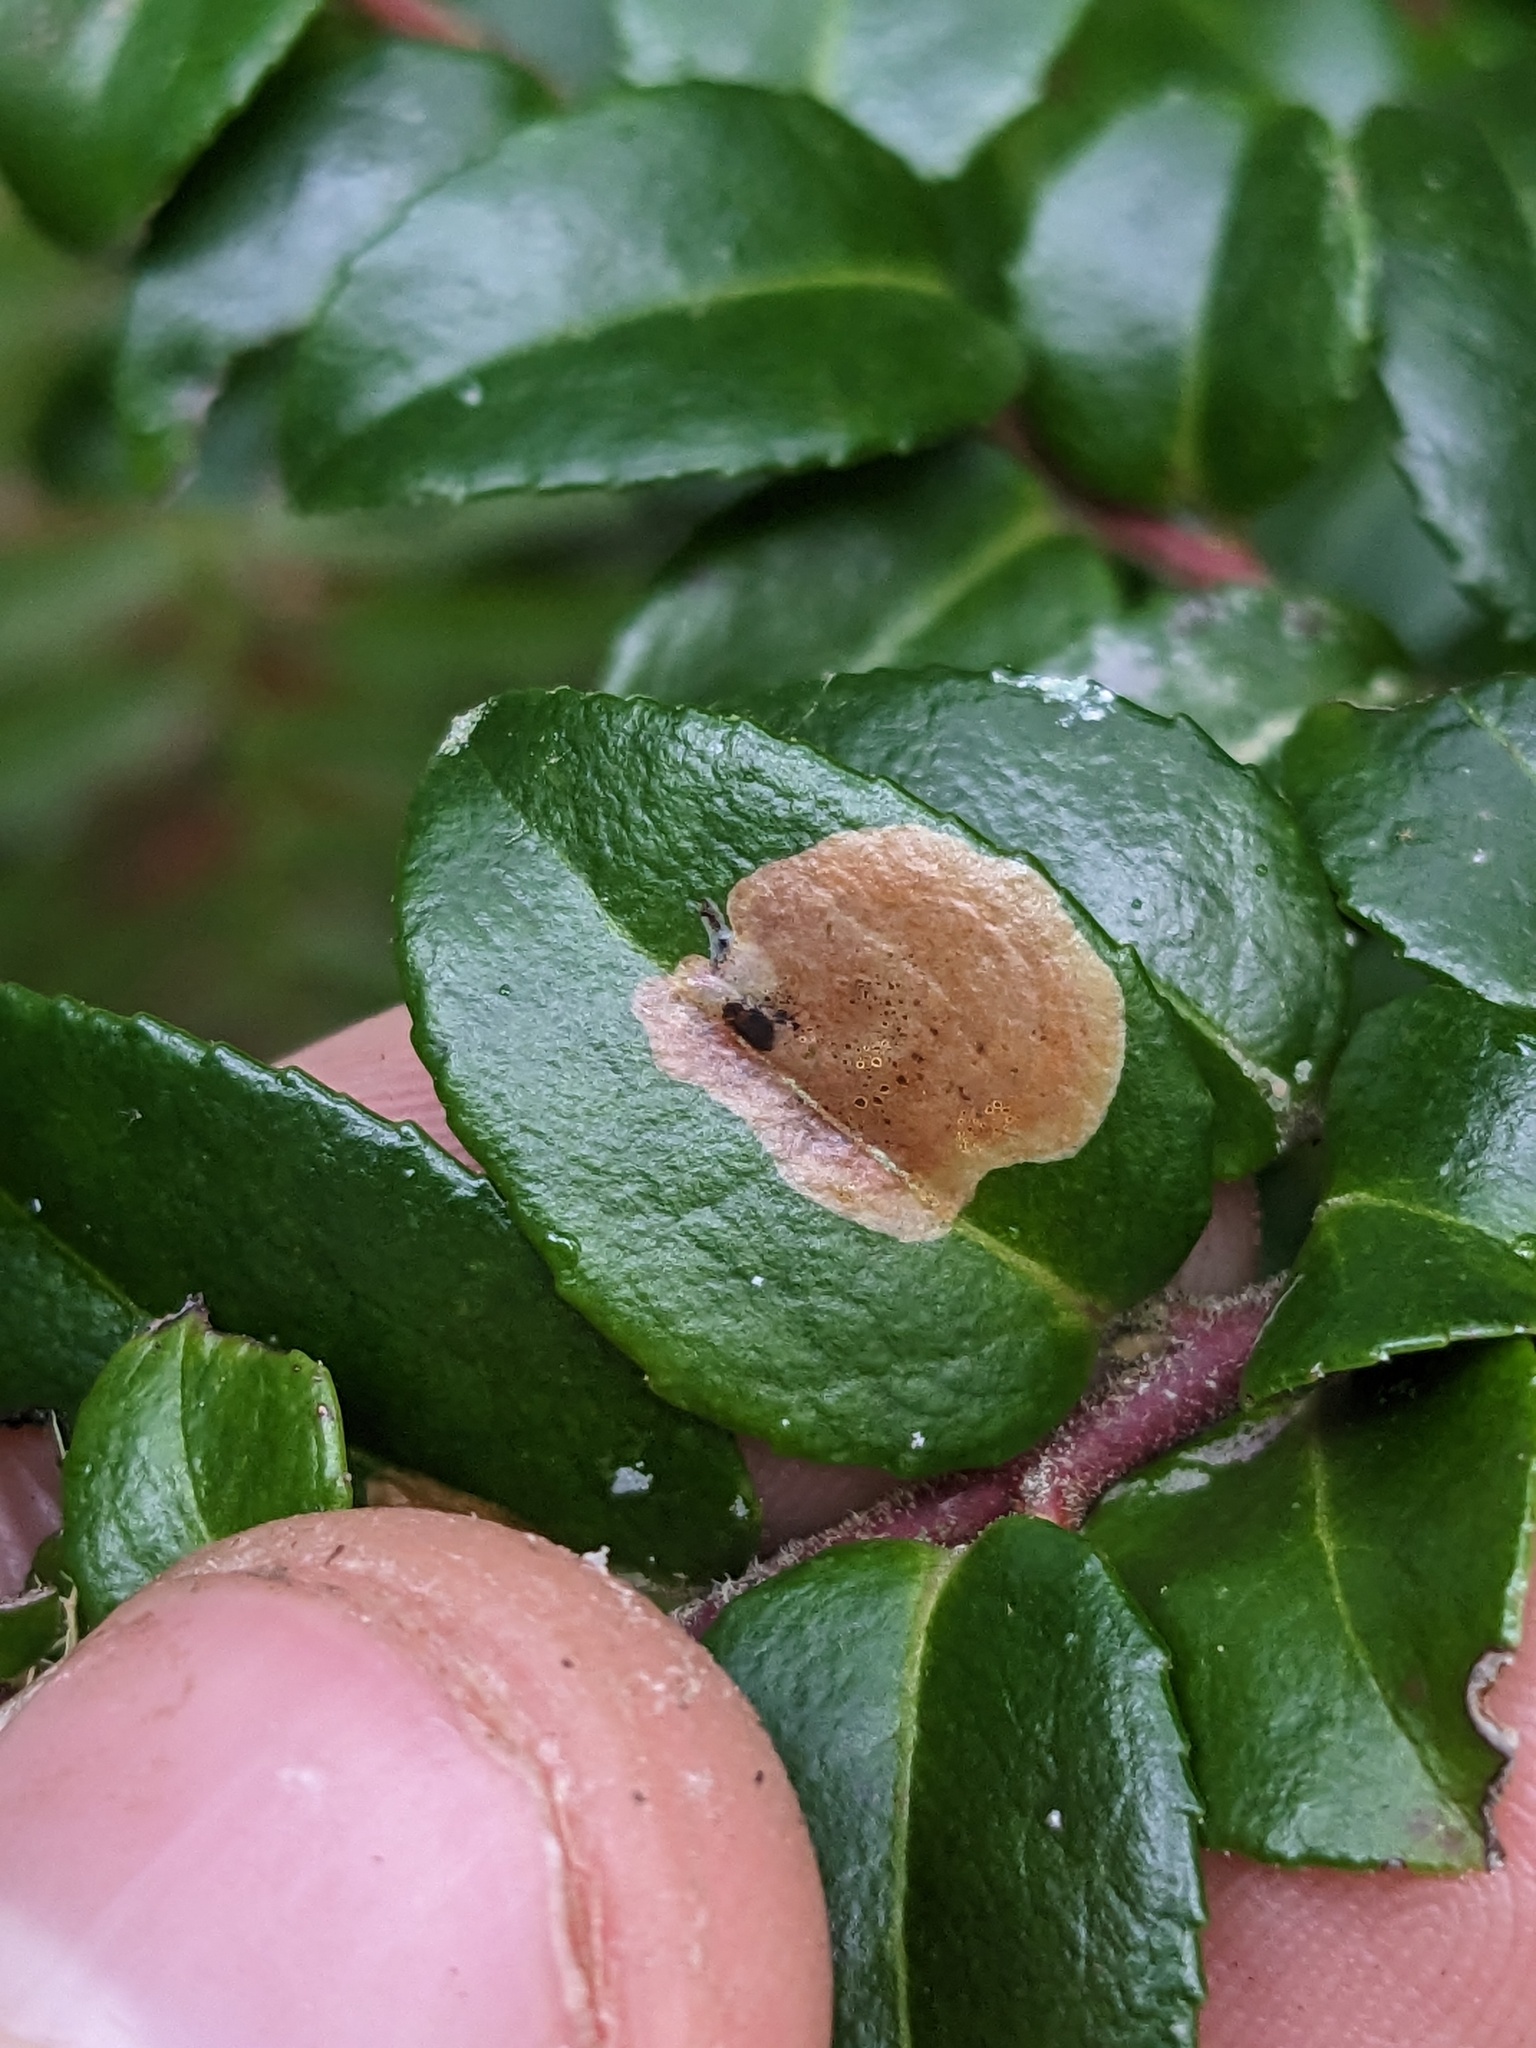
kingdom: Animalia
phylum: Arthropoda
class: Insecta
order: Lepidoptera
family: Gracillariidae
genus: Cameraria
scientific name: Cameraria nemoris
